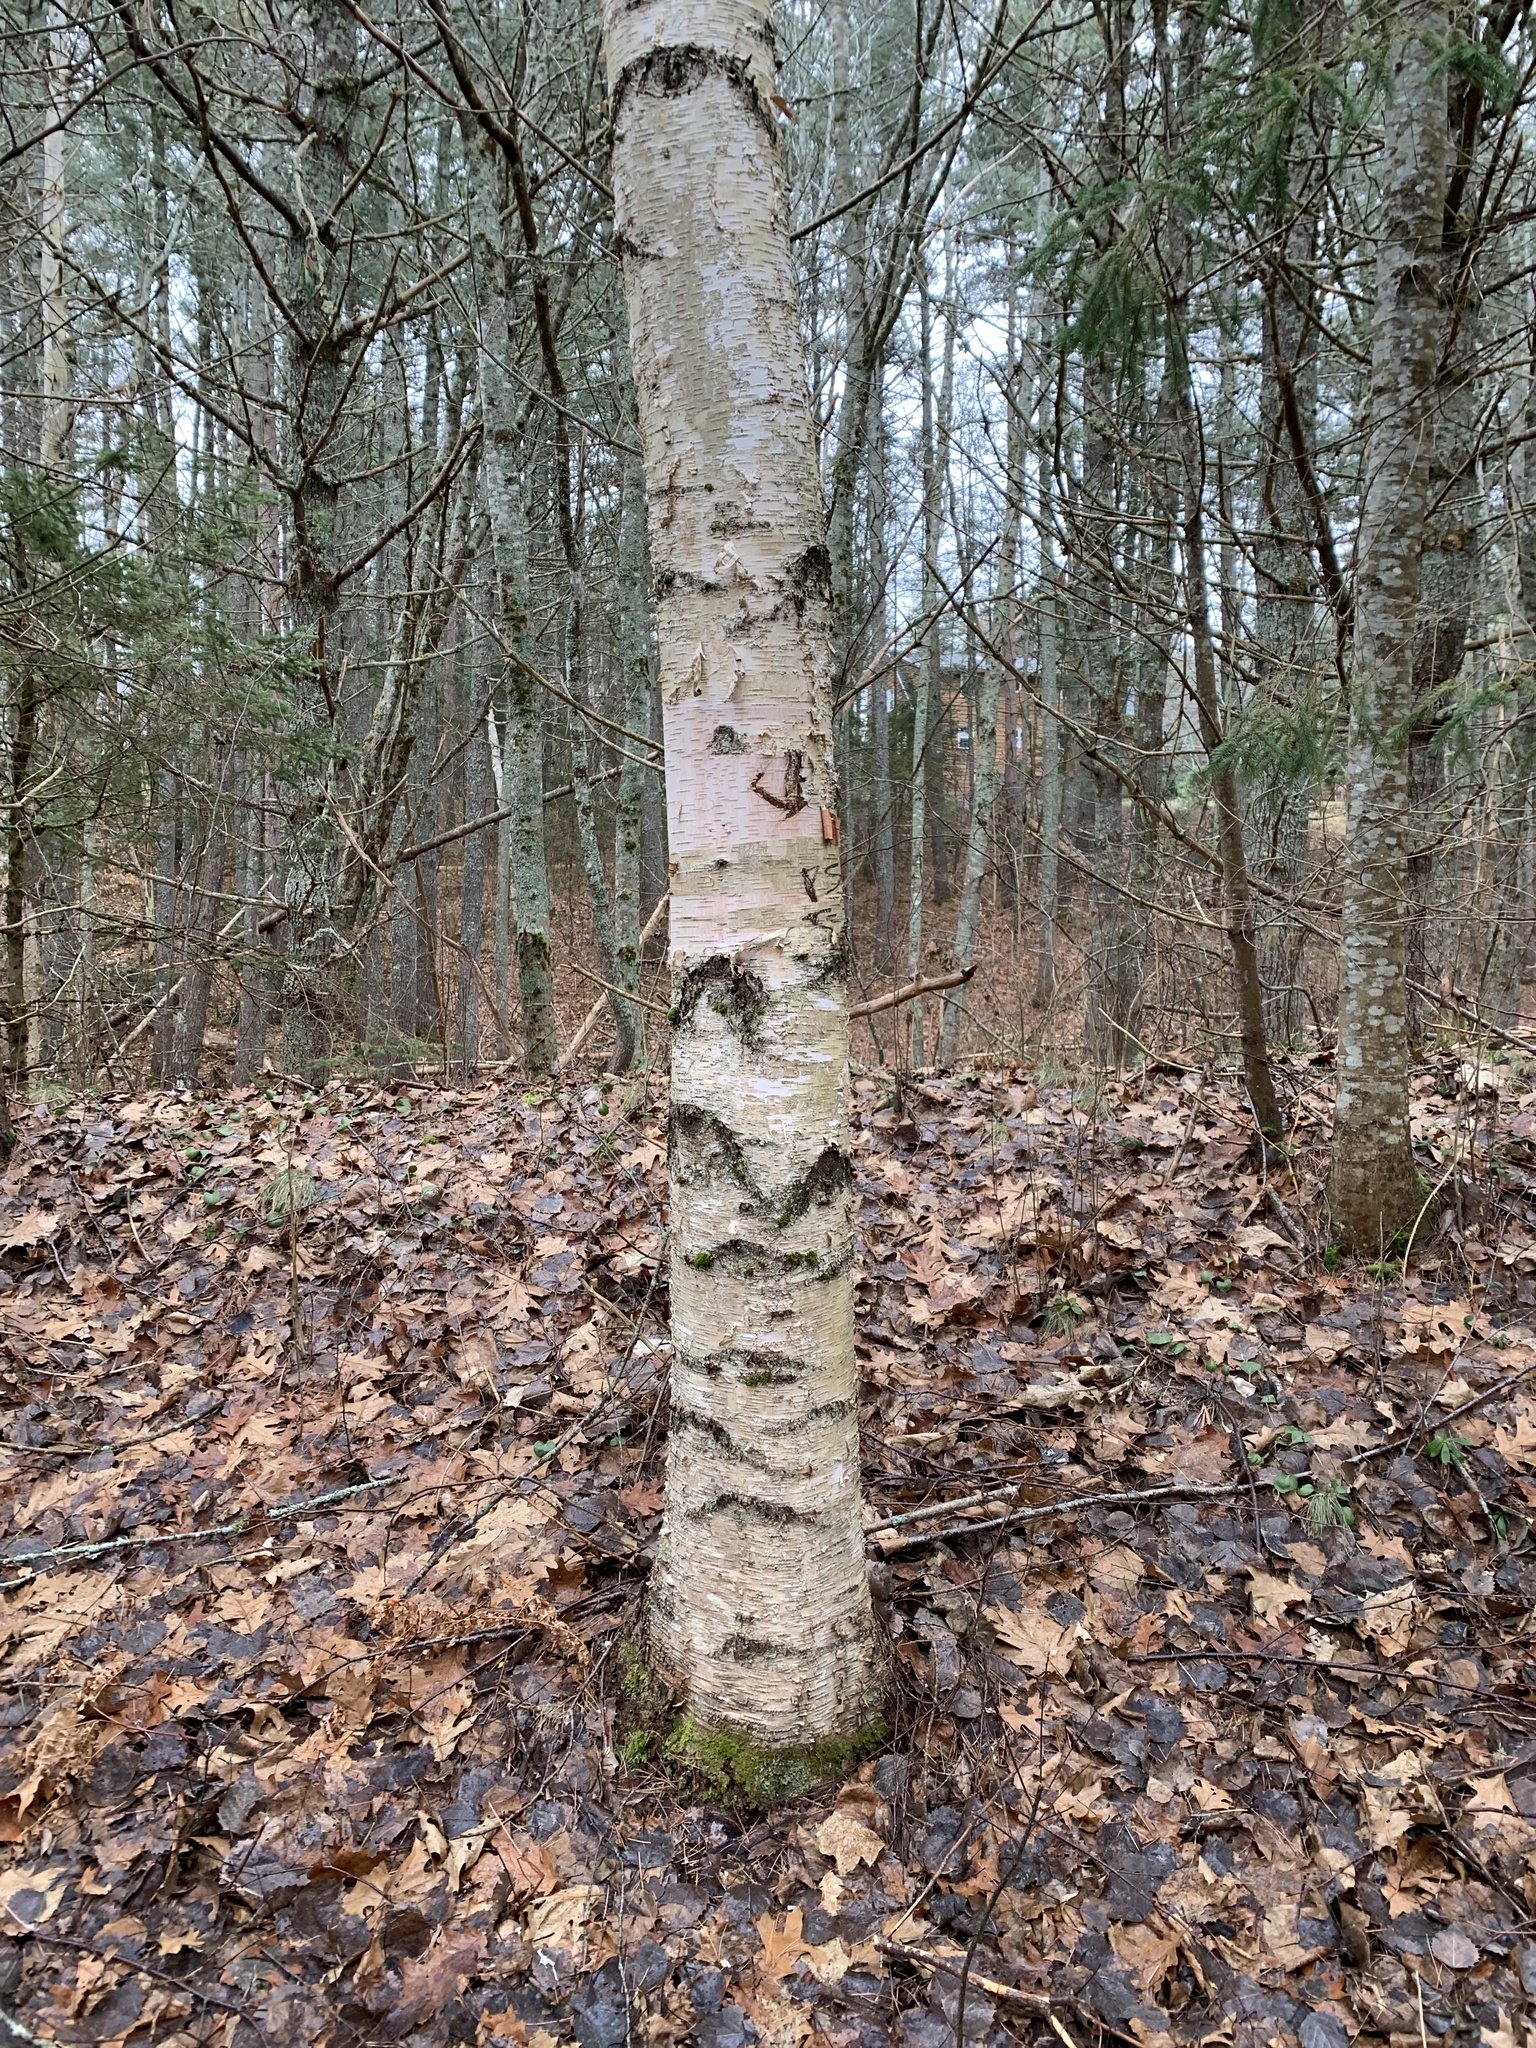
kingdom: Plantae
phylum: Tracheophyta
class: Magnoliopsida
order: Fagales
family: Betulaceae
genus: Betula
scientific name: Betula papyrifera
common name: Paper birch
